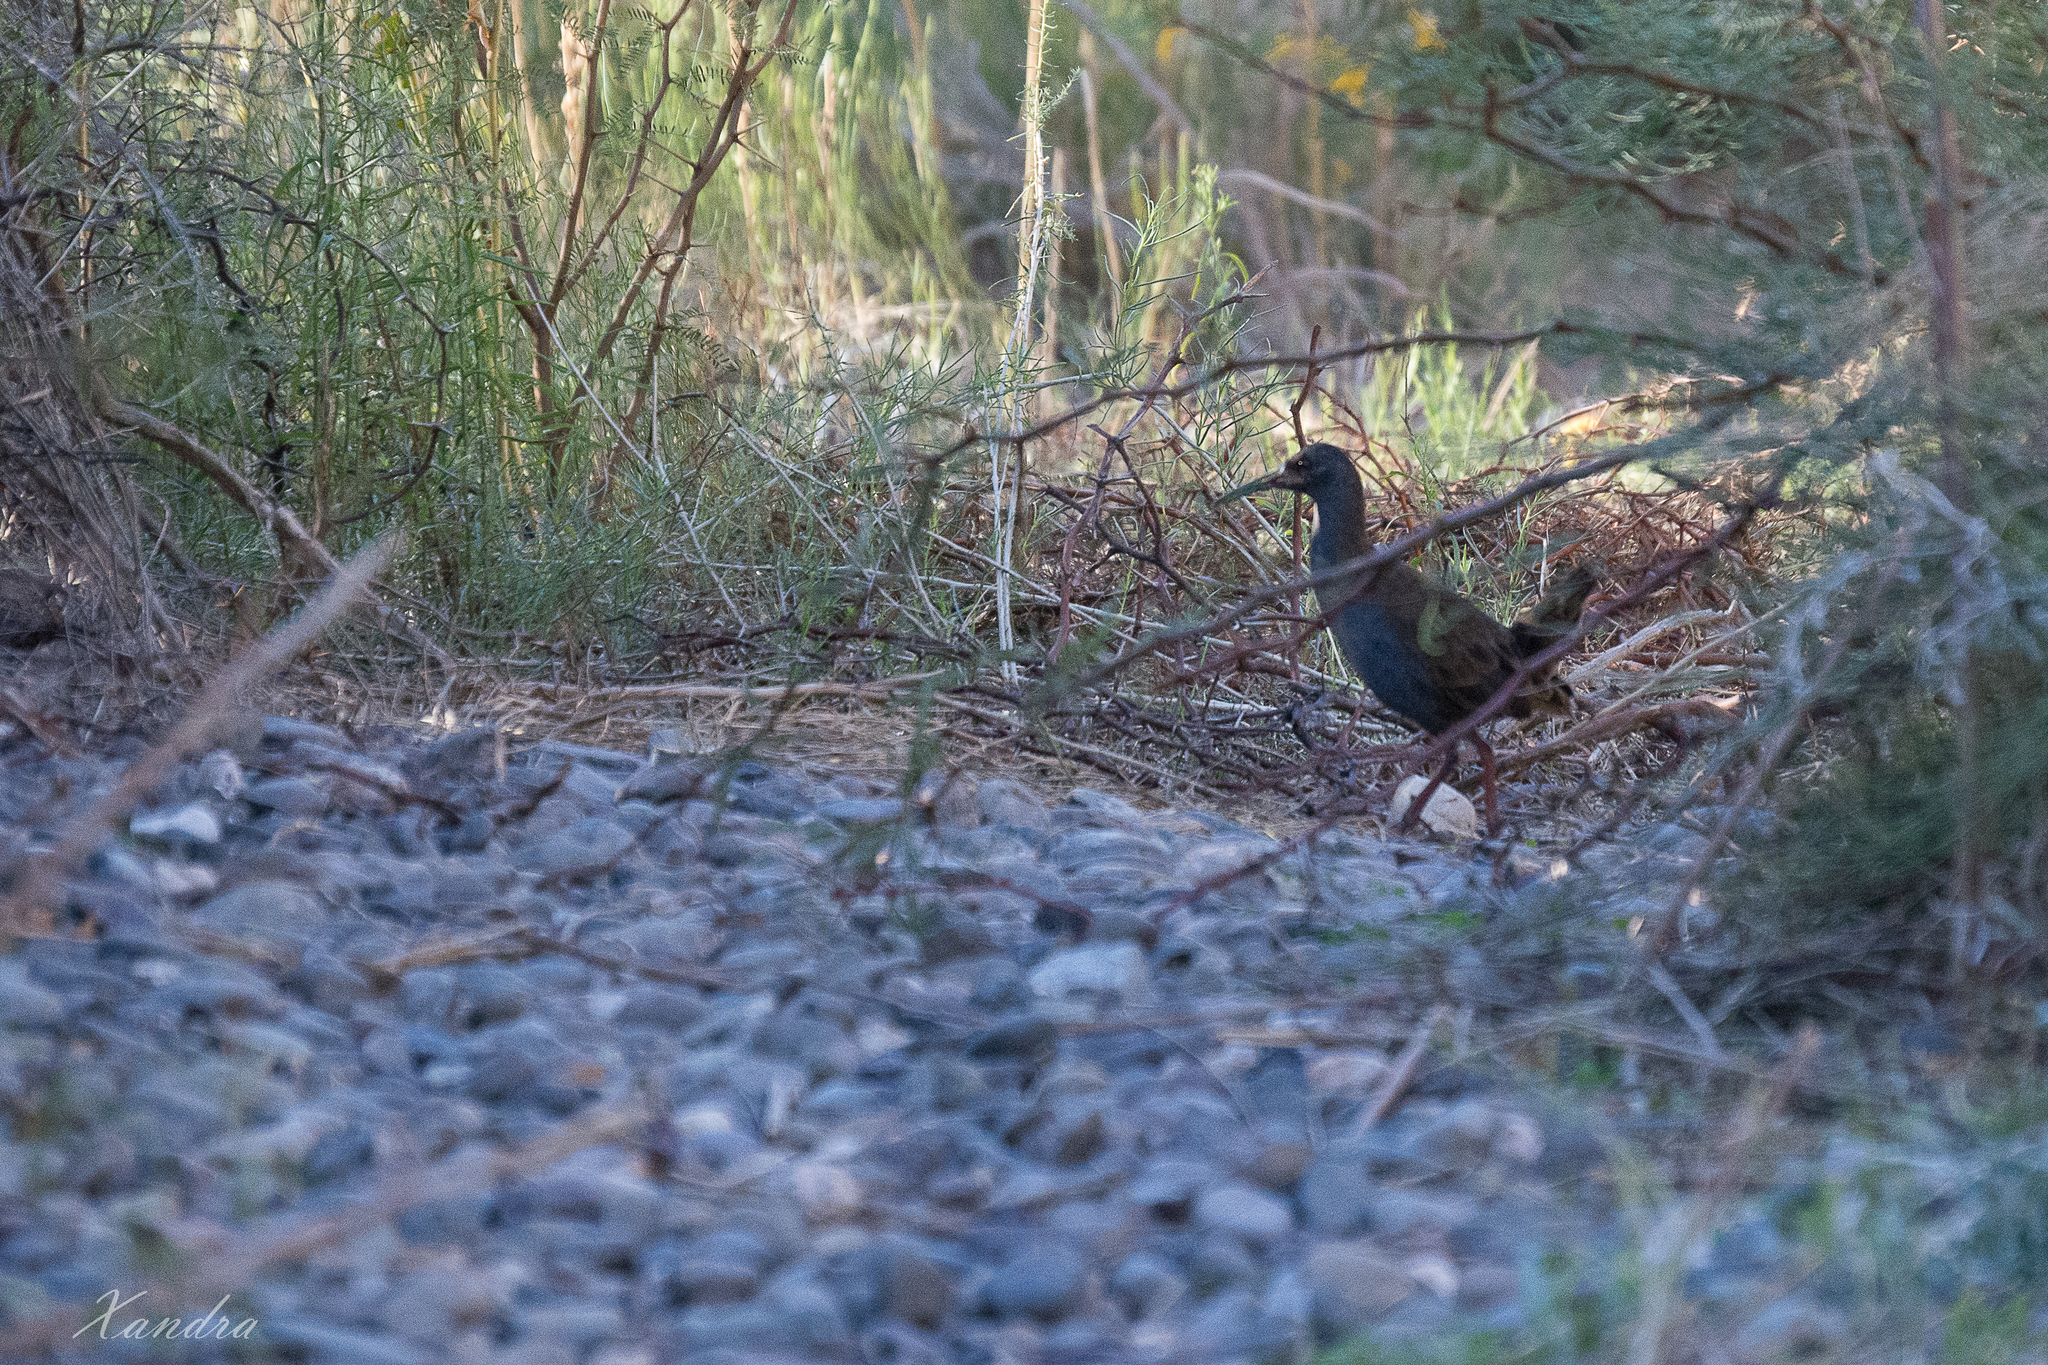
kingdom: Animalia
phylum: Chordata
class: Aves
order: Gruiformes
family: Rallidae
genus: Pardirallus
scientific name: Pardirallus sanguinolentus
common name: Plumbeous rail
